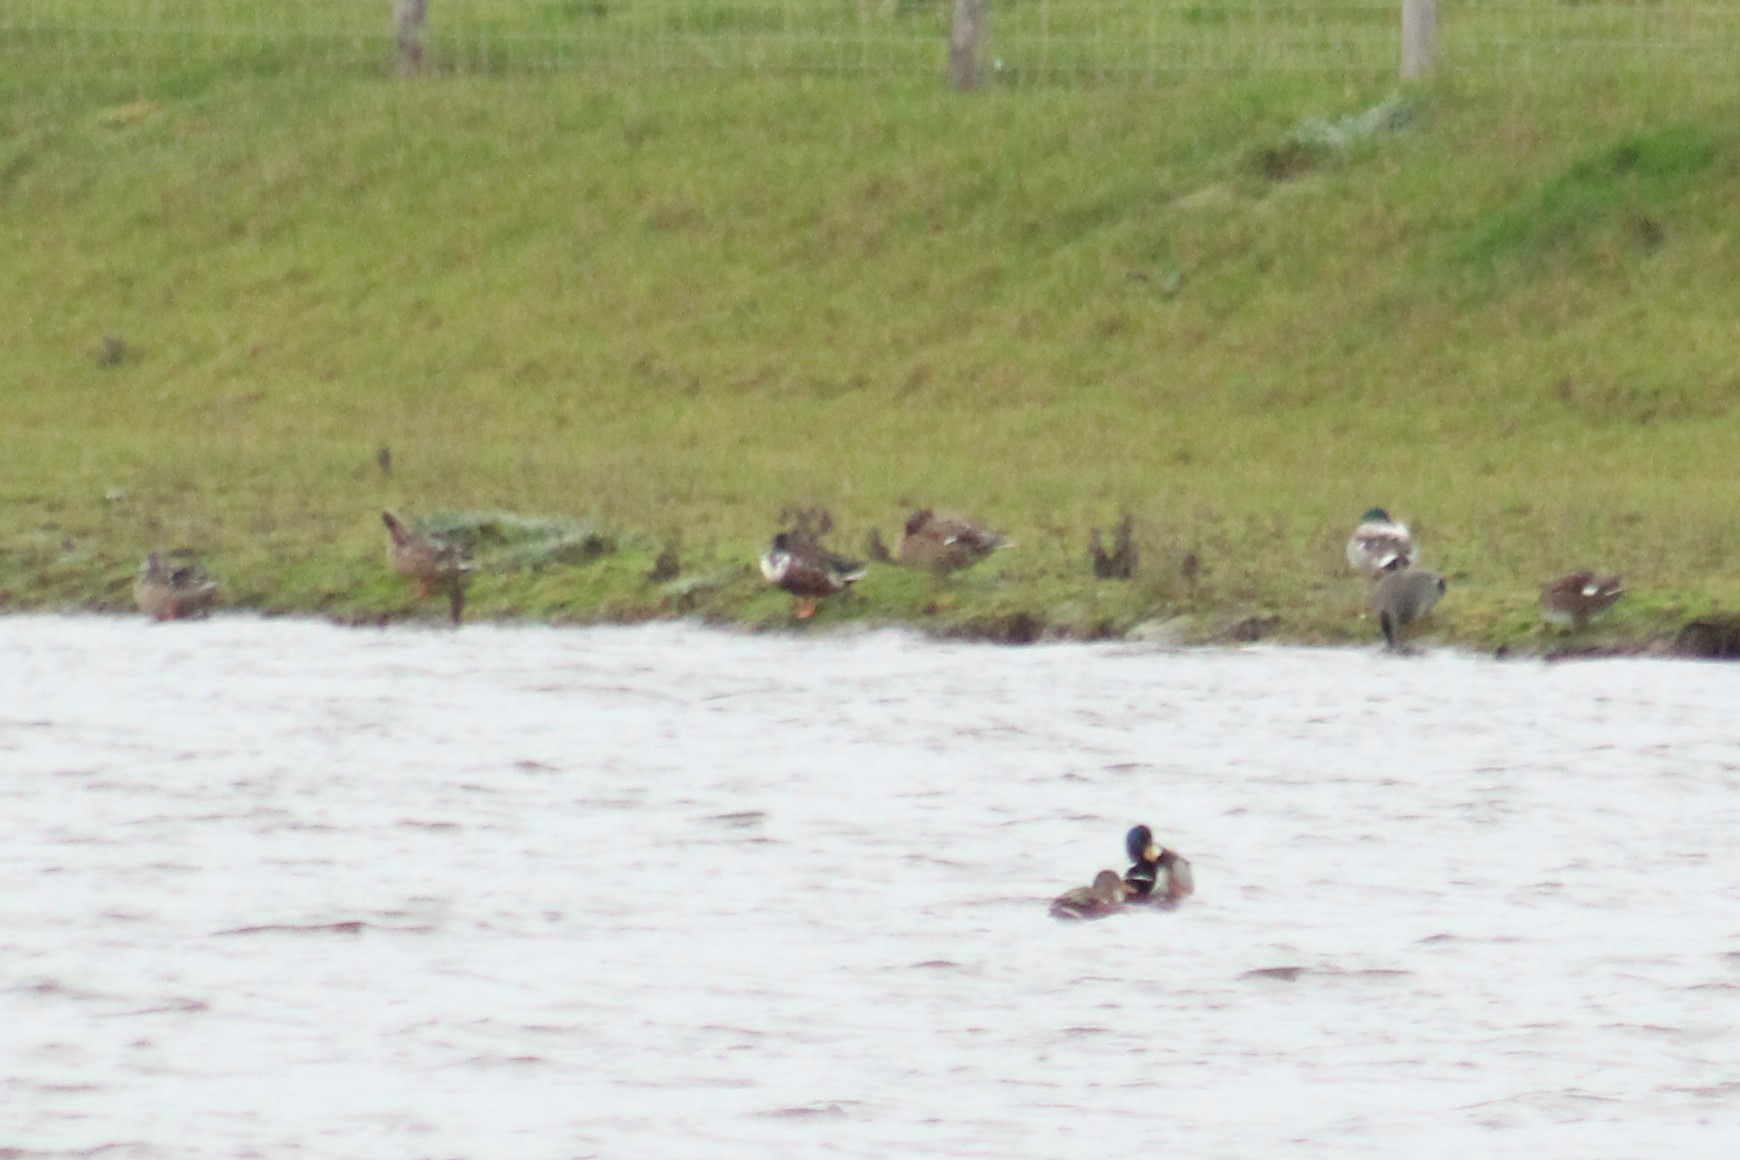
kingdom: Animalia
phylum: Chordata
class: Aves
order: Anseriformes
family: Anatidae
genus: Spatula
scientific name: Spatula clypeata
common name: Northern shoveler
